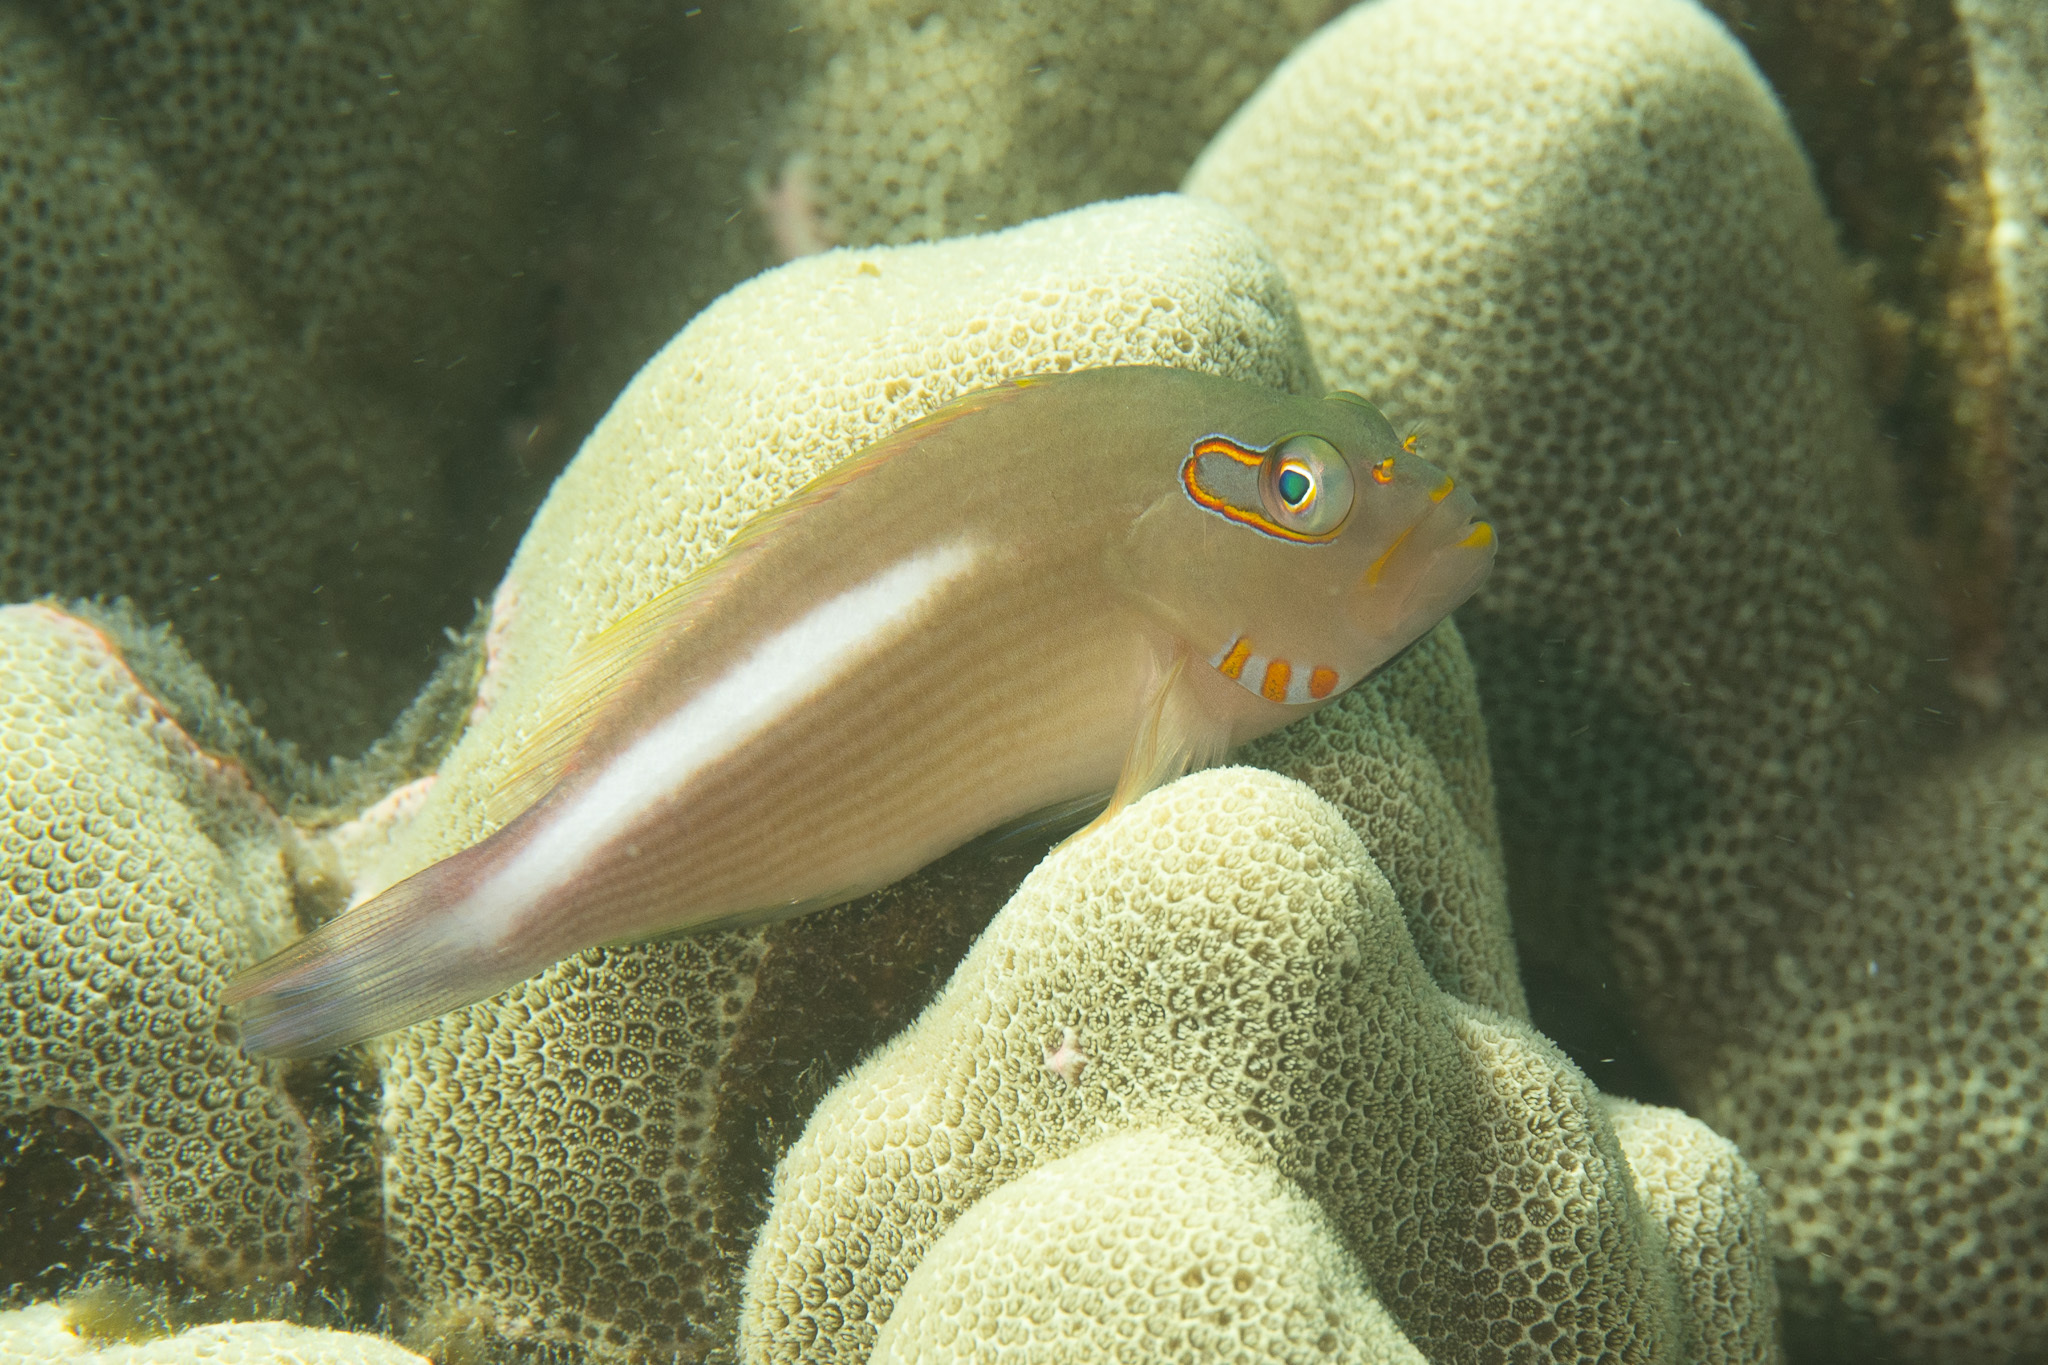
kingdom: Animalia
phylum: Chordata
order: Perciformes
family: Cirrhitidae
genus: Paracirrhites
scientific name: Paracirrhites arcatus
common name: Arc-eye hawkfish
